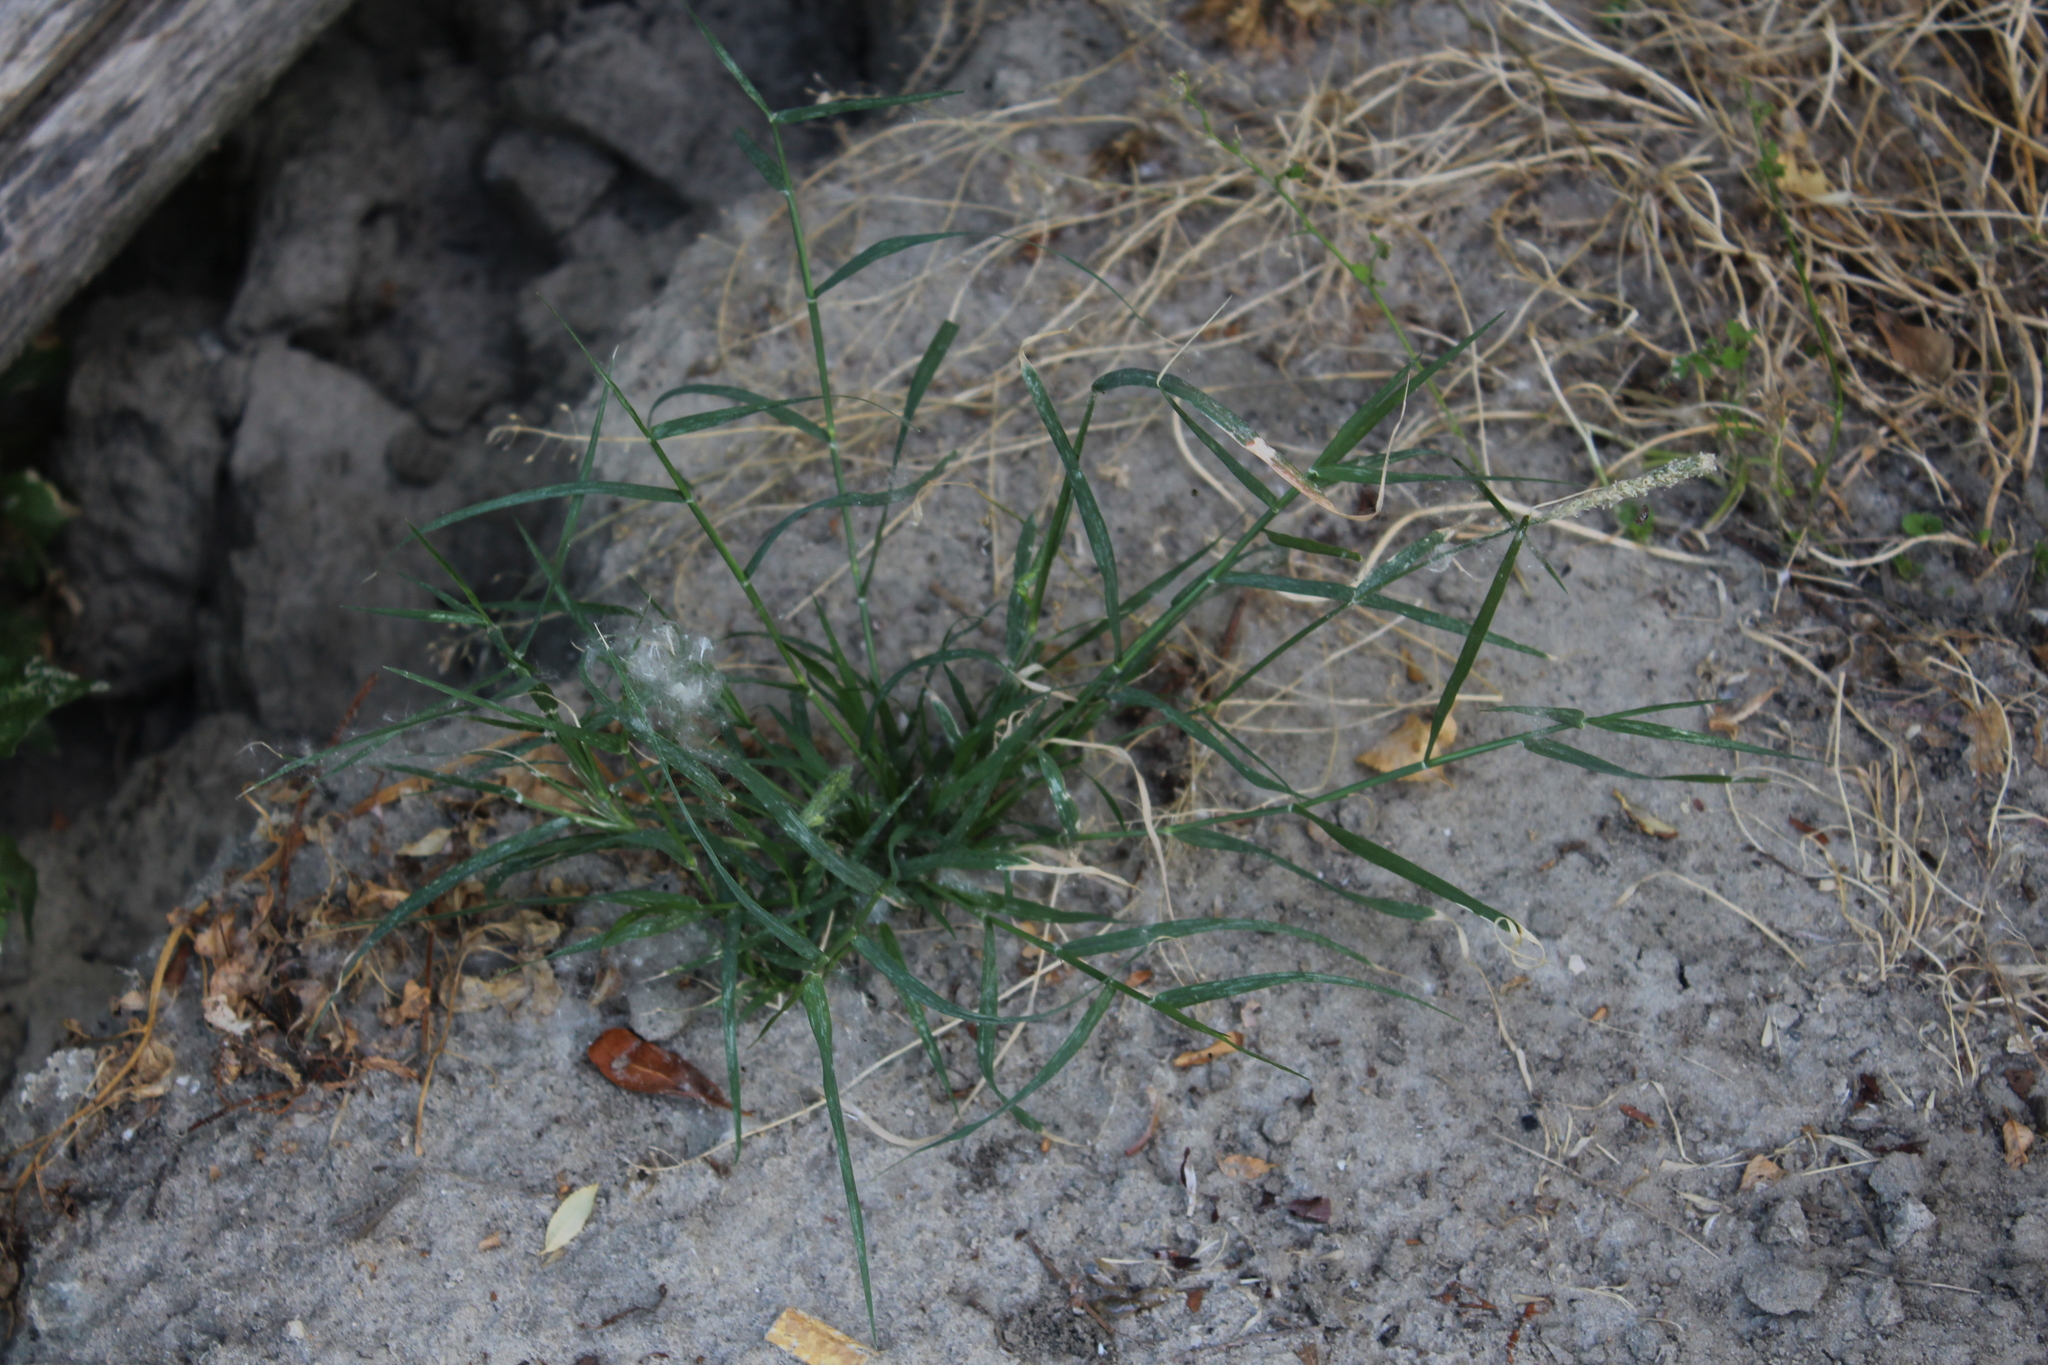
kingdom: Plantae
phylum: Tracheophyta
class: Liliopsida
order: Poales
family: Poaceae
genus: Sporobolus
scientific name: Sporobolus alopecuroides
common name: Foxtail pricklegrass
